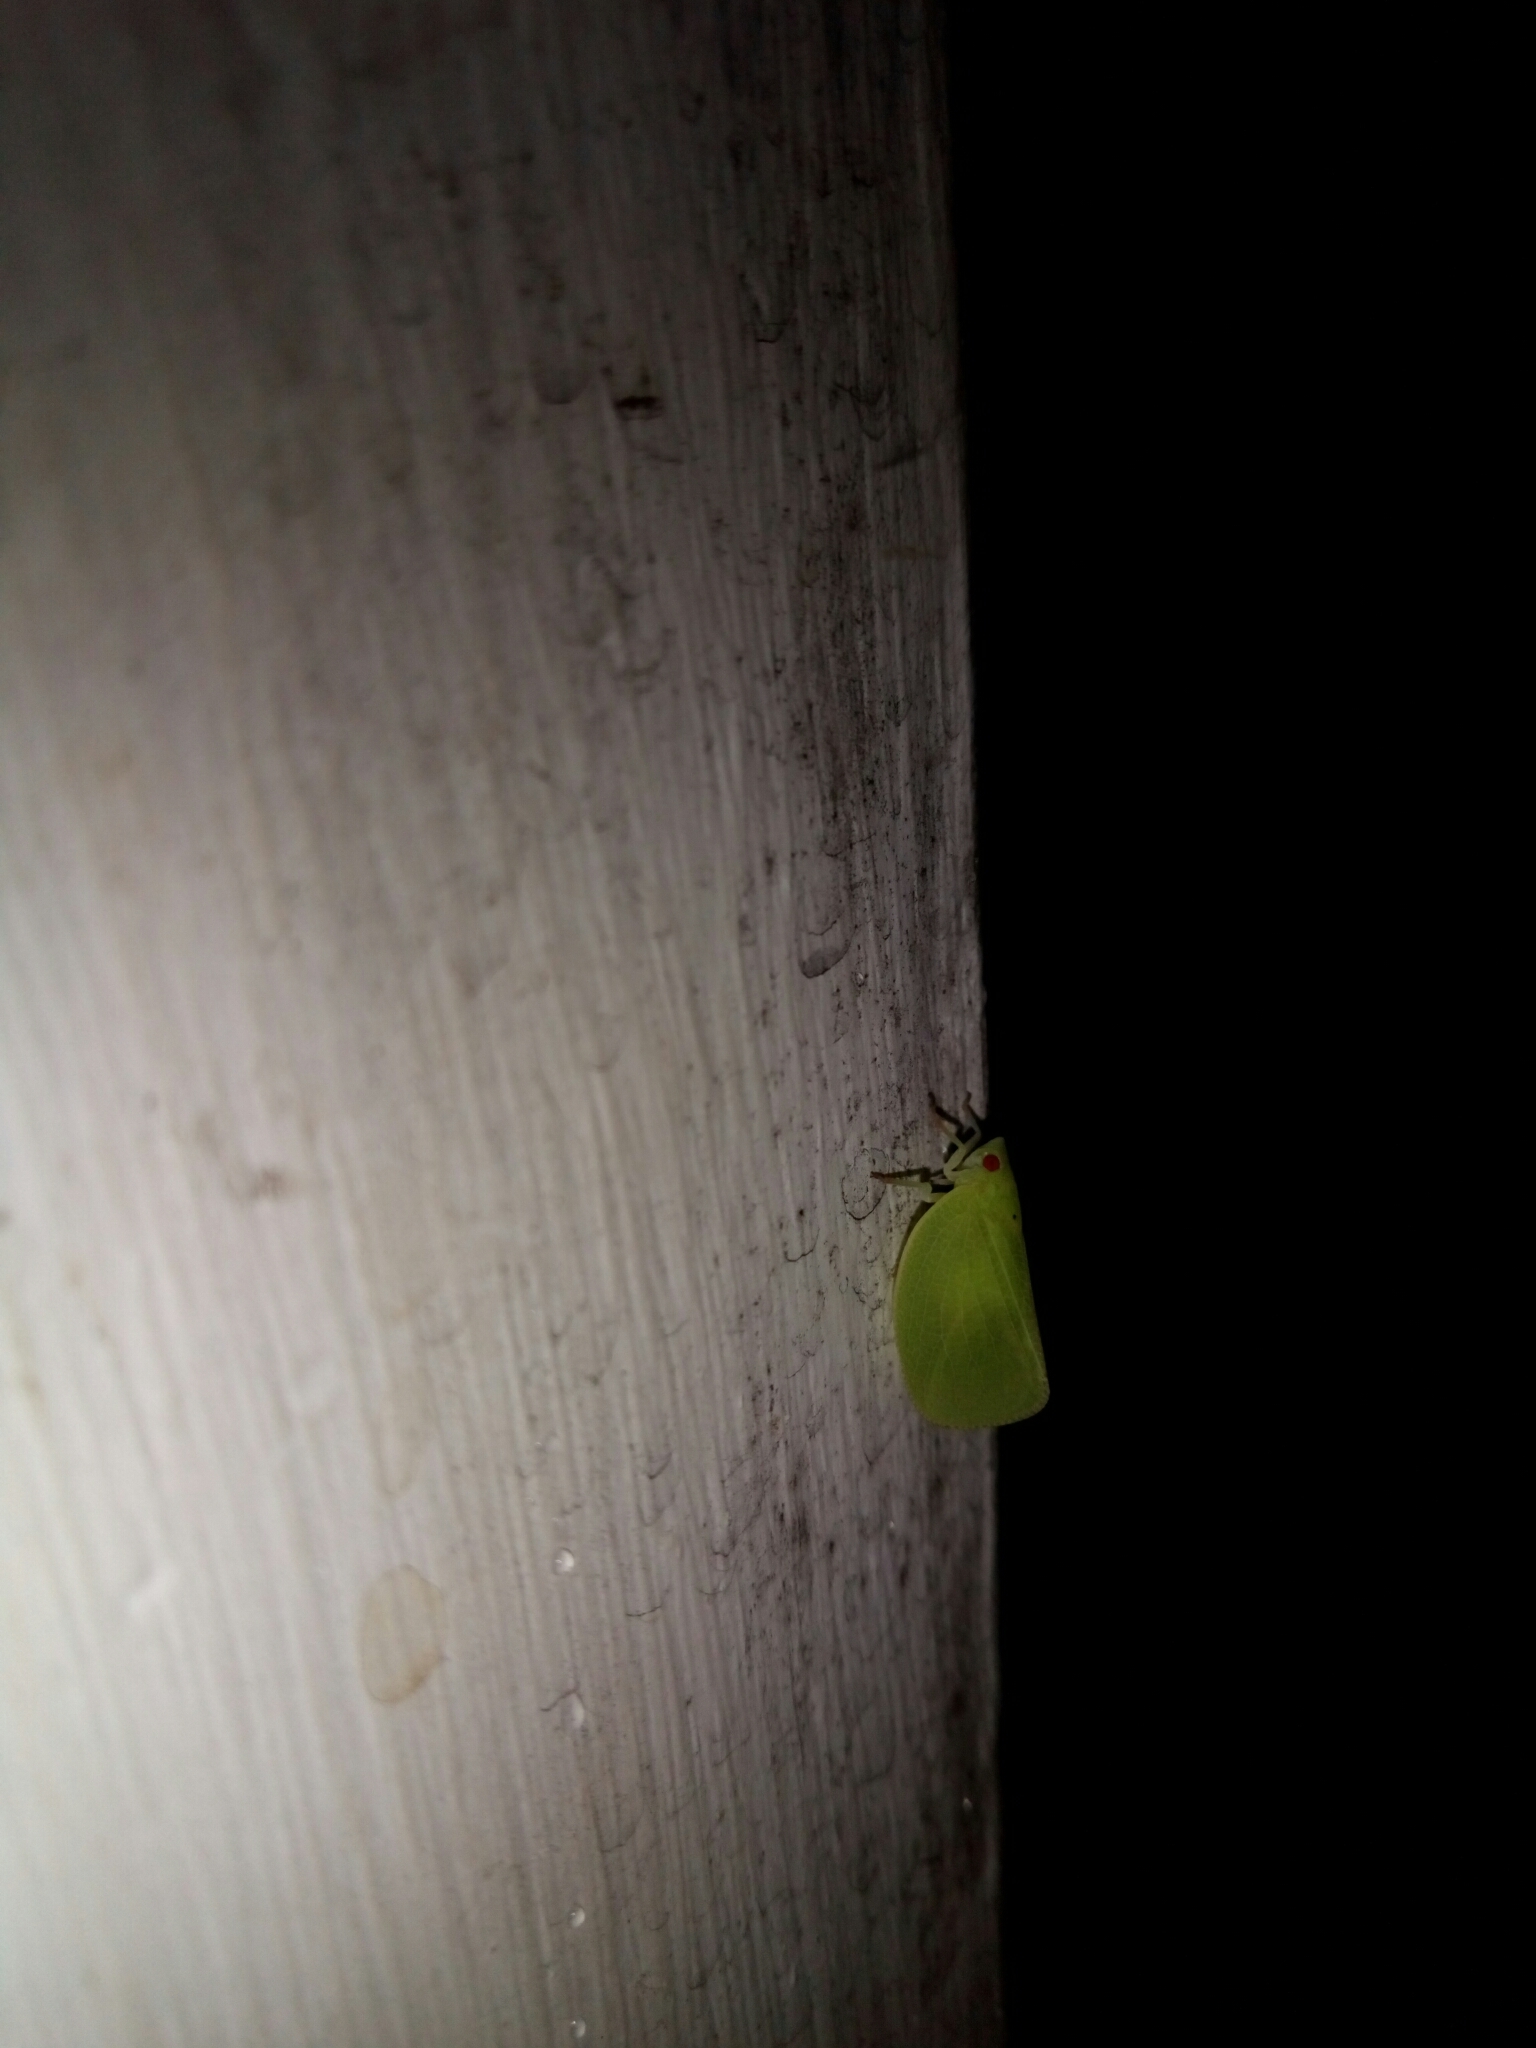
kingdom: Animalia
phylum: Arthropoda
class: Insecta
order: Hemiptera
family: Acanaloniidae
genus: Acanalonia
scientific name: Acanalonia conica
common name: Green cone-headed planthopper
